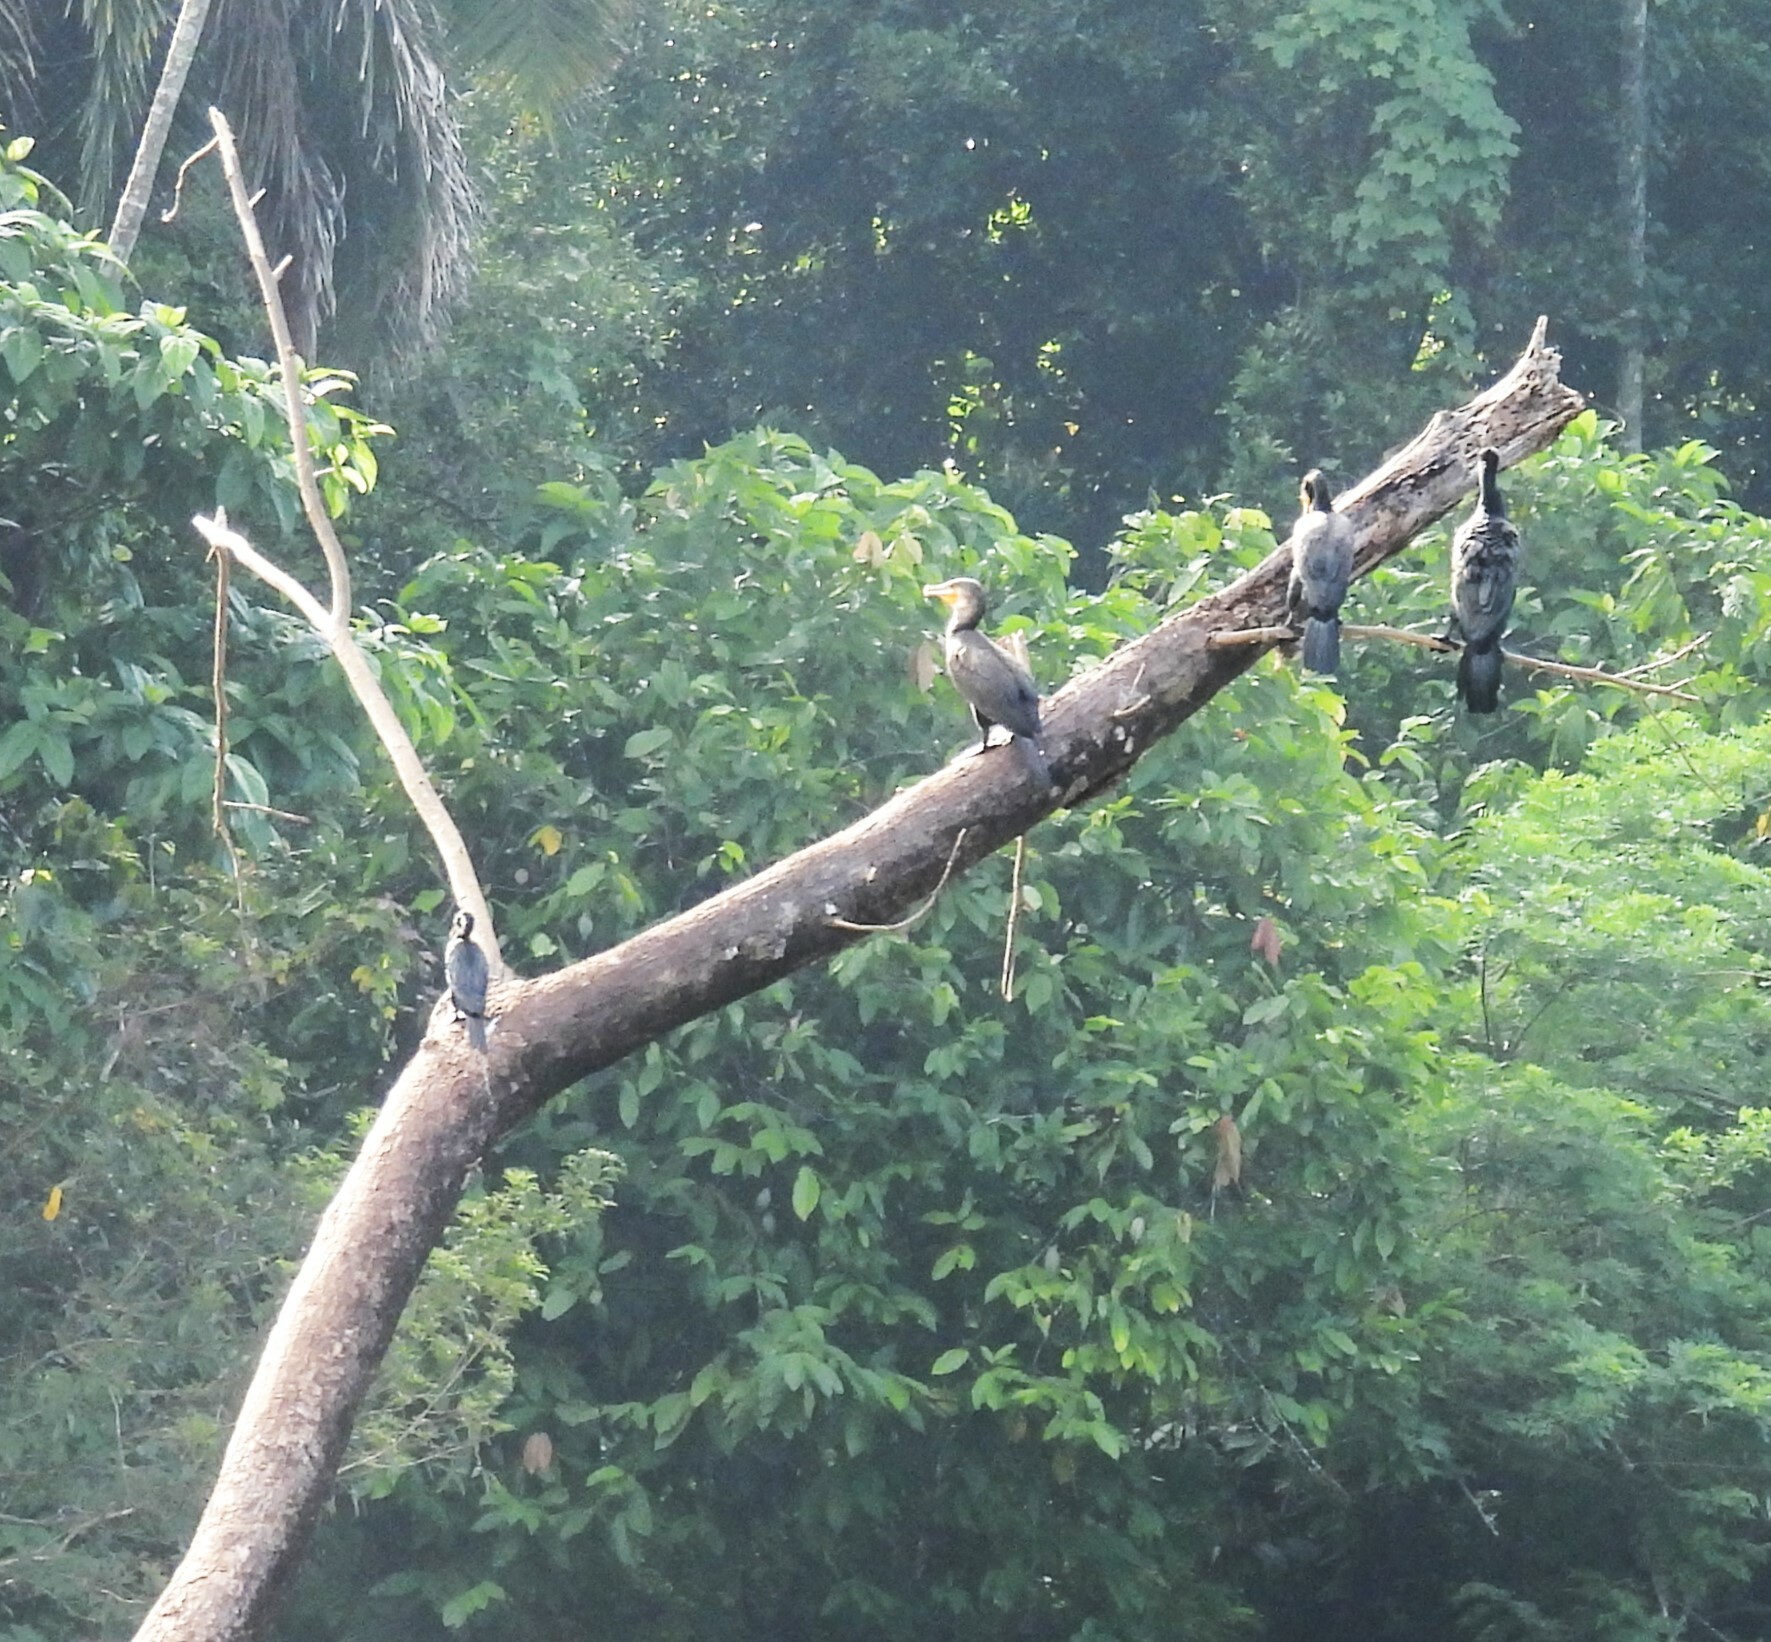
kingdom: Animalia
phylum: Chordata
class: Aves
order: Suliformes
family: Phalacrocoracidae
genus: Phalacrocorax
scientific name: Phalacrocorax carbo
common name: Great cormorant
